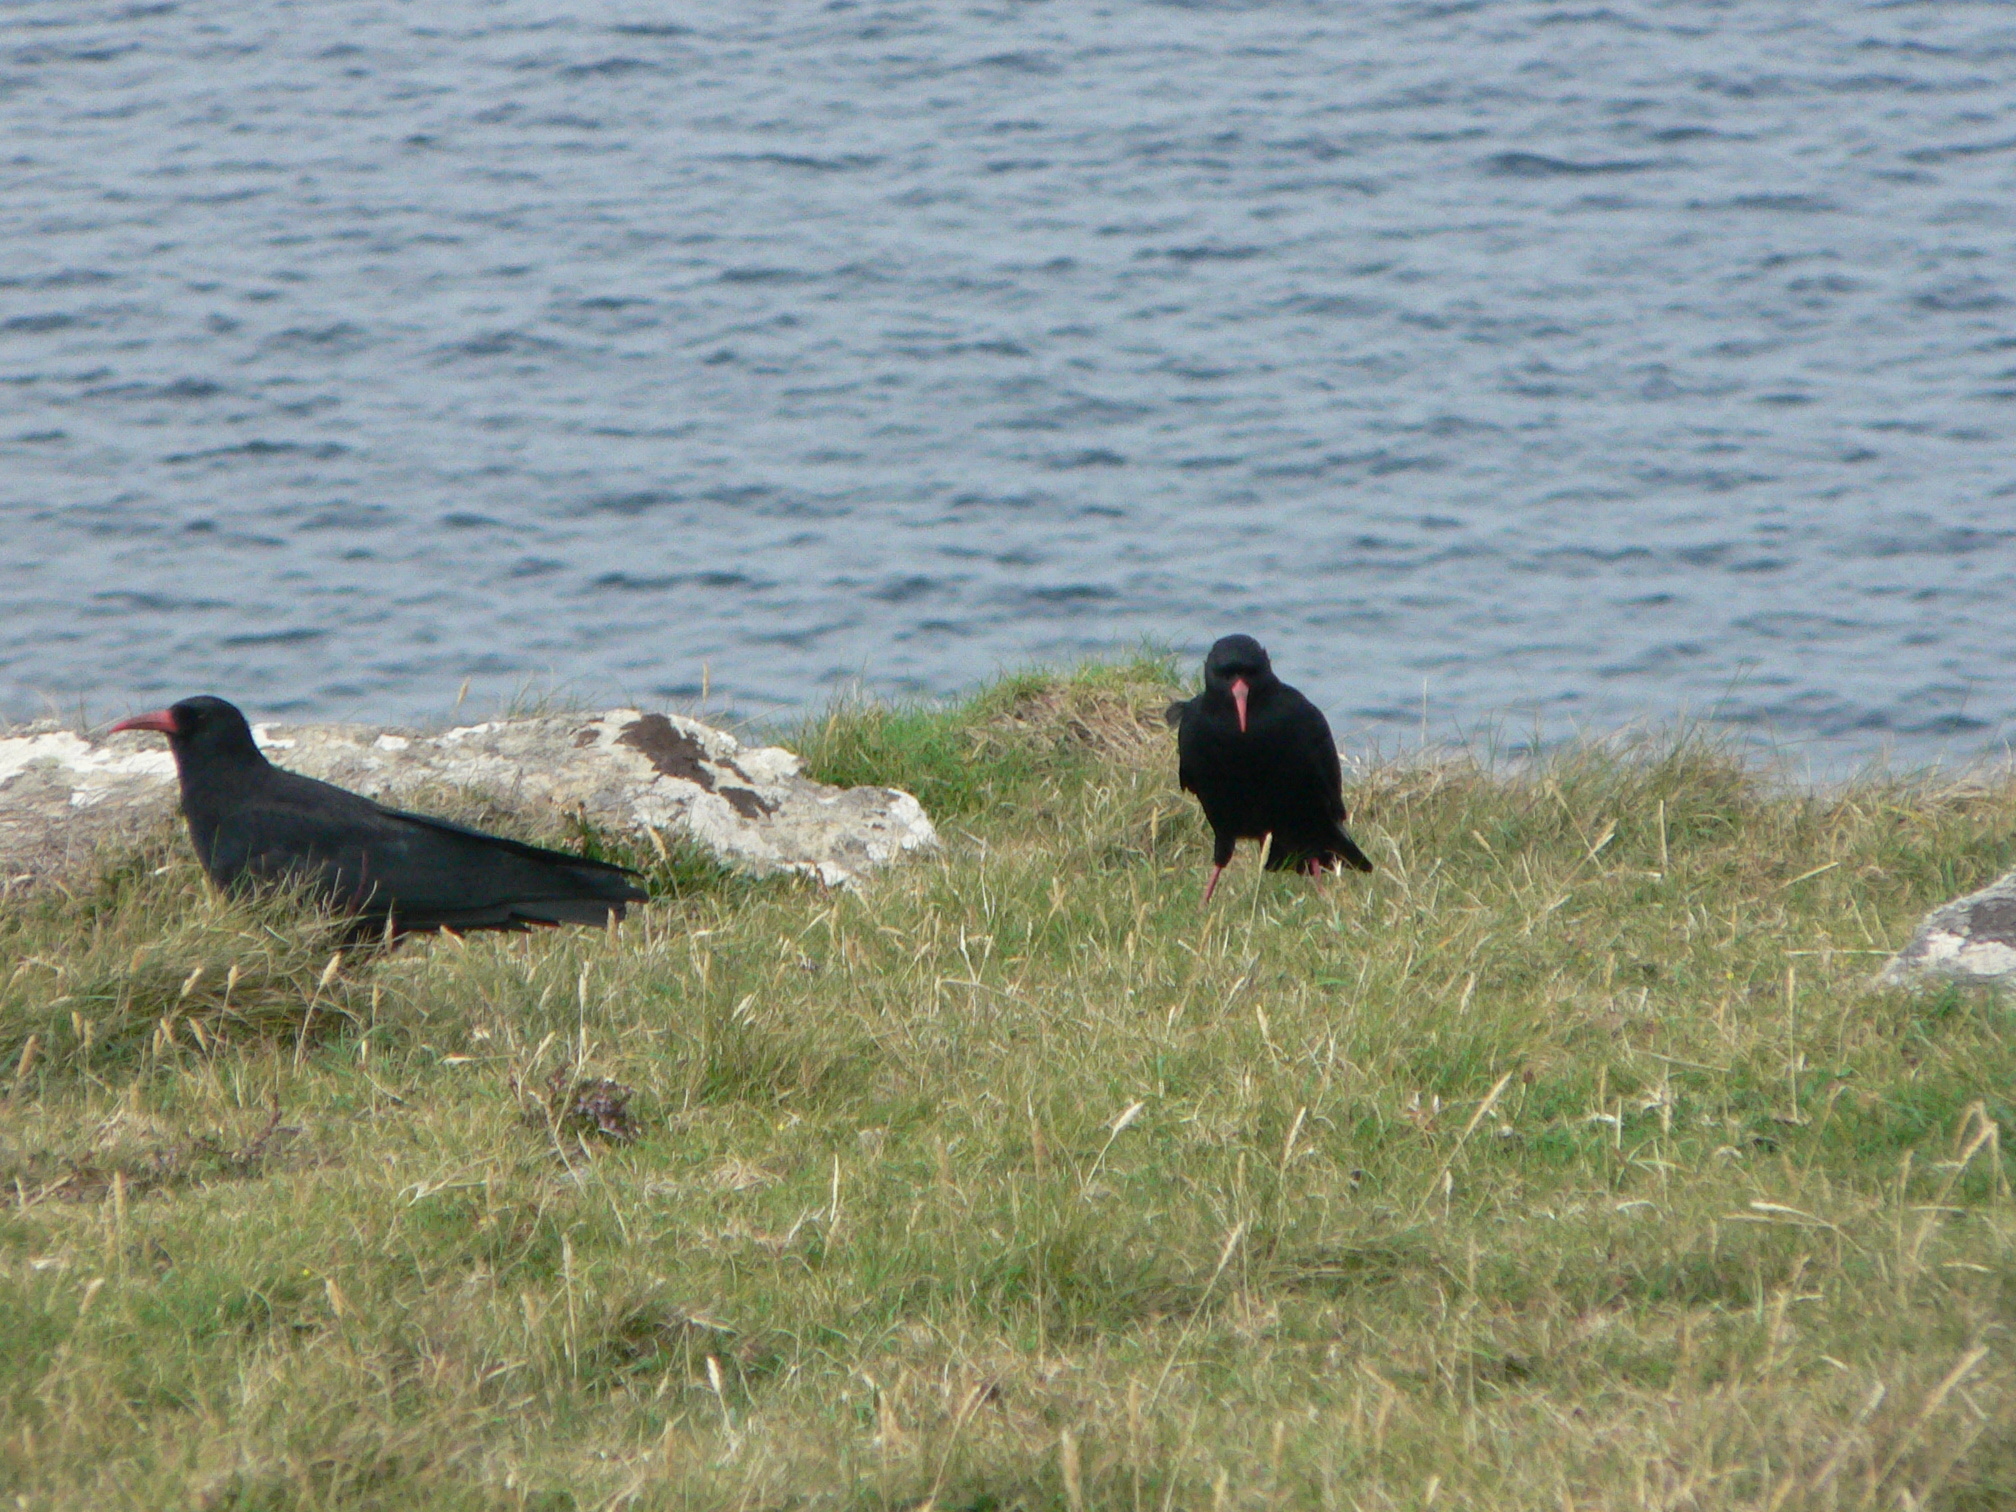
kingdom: Animalia
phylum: Chordata
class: Aves
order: Passeriformes
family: Corvidae
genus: Pyrrhocorax
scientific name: Pyrrhocorax pyrrhocorax
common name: Red-billed chough
